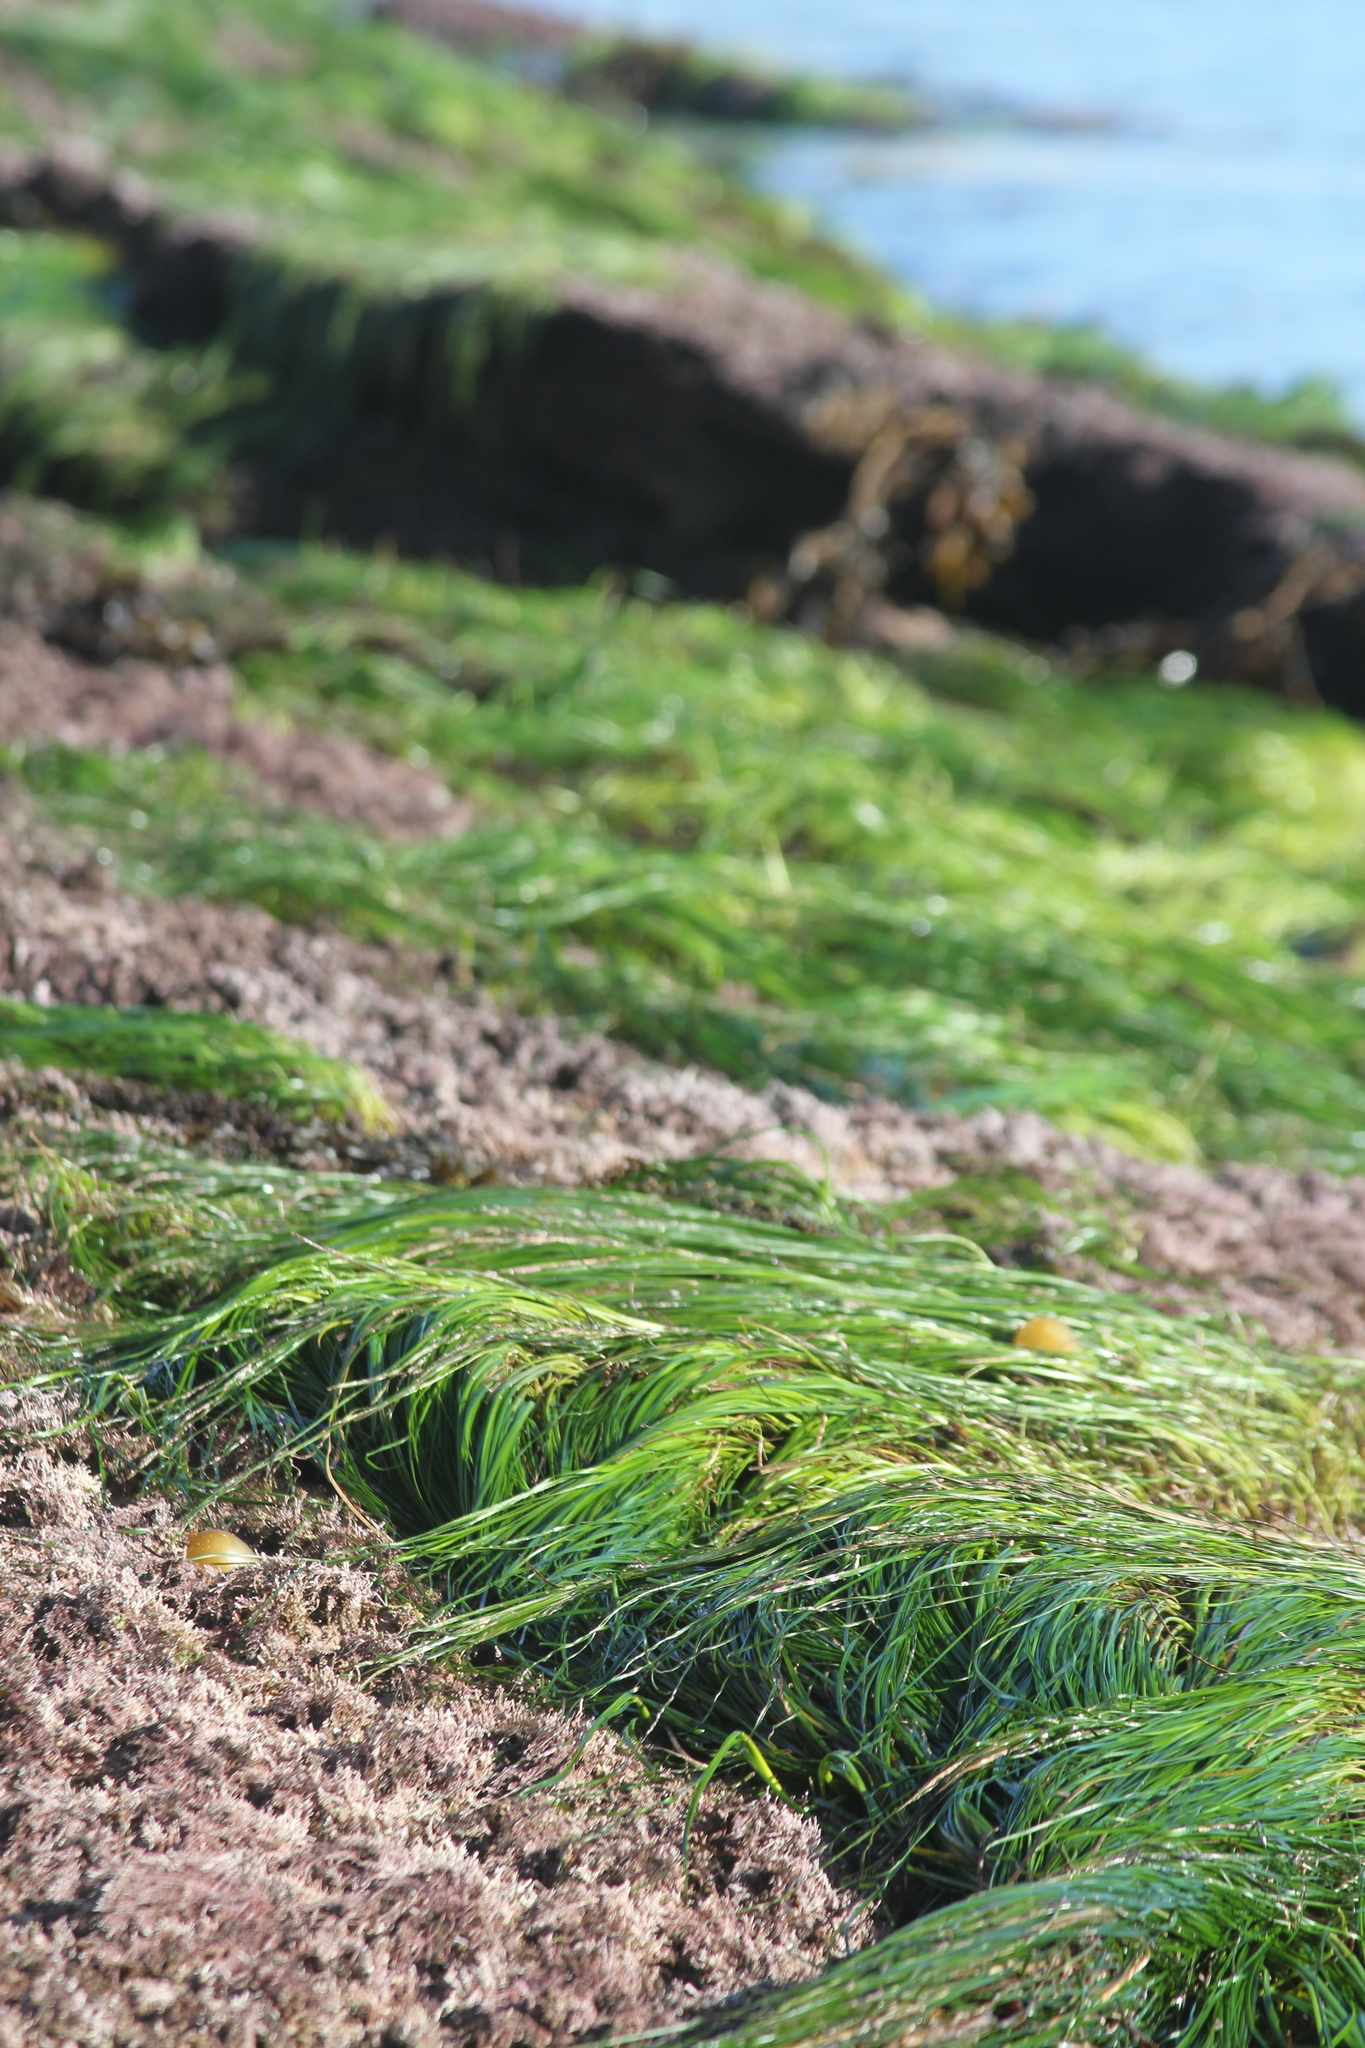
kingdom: Plantae
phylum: Tracheophyta
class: Liliopsida
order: Alismatales
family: Zosteraceae
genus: Phyllospadix
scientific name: Phyllospadix torreyi
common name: Surfgrass
